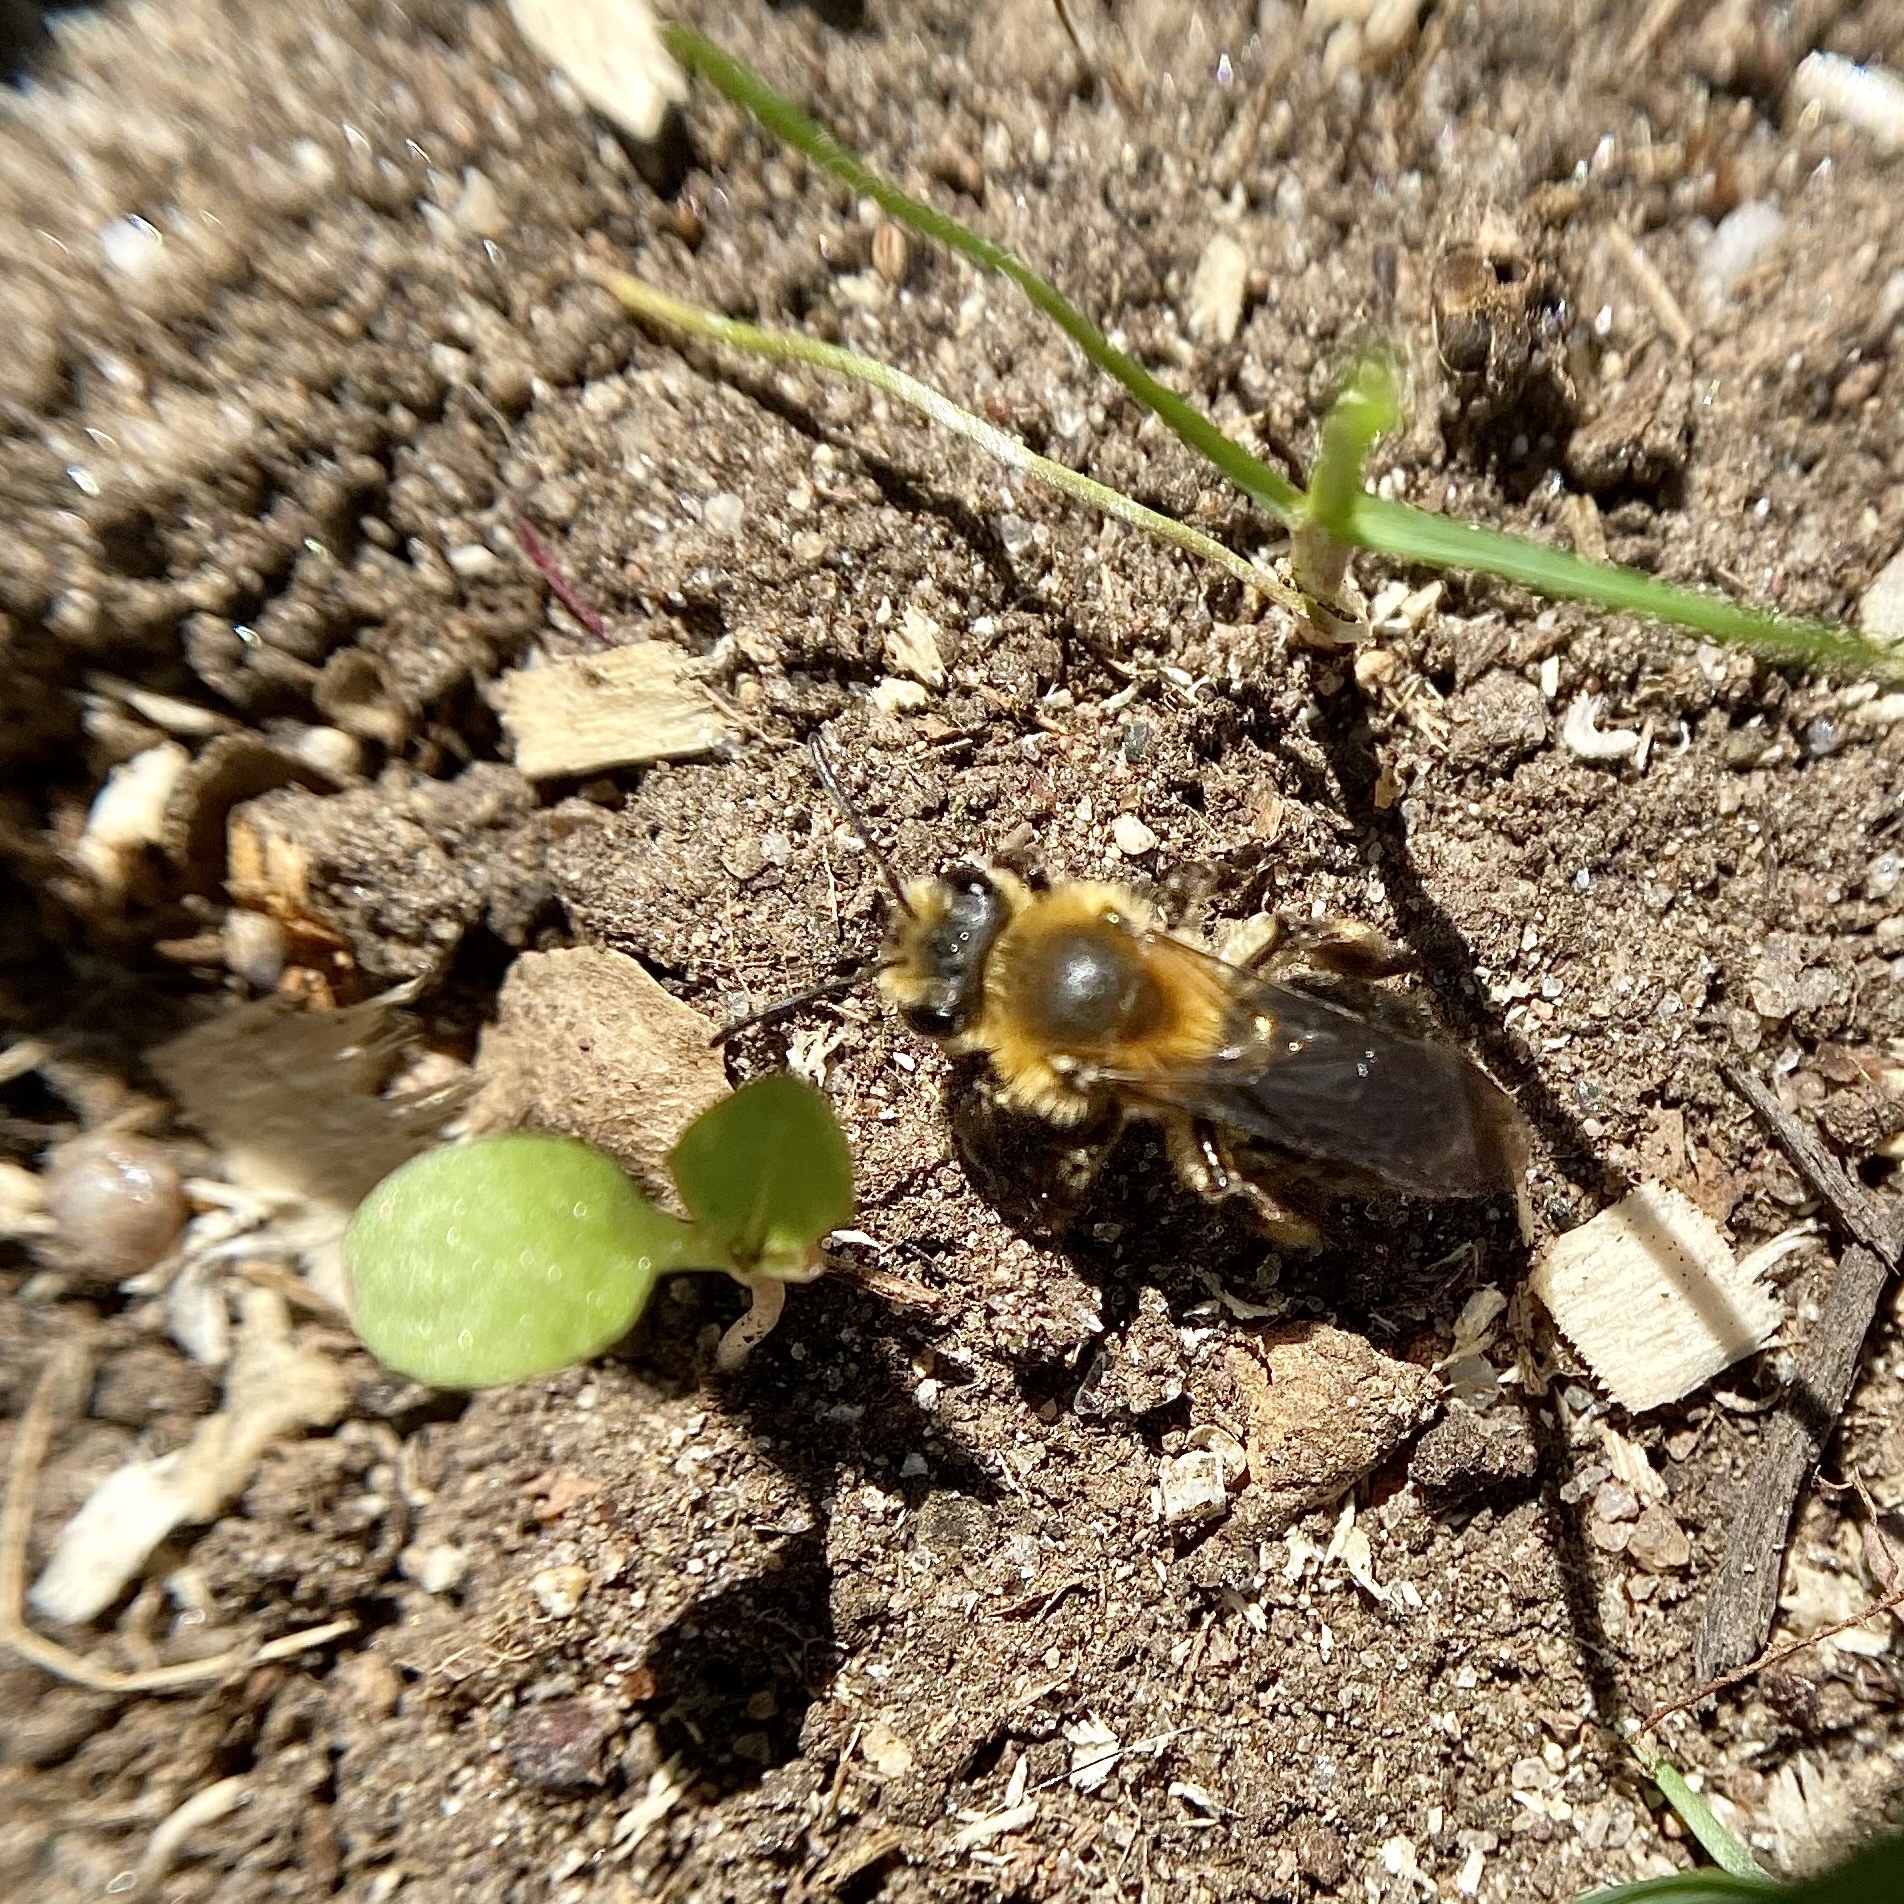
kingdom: Animalia
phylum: Arthropoda
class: Insecta
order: Hymenoptera
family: Andrenidae
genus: Andrena
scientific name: Andrena dunningi
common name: Dunning's miner
